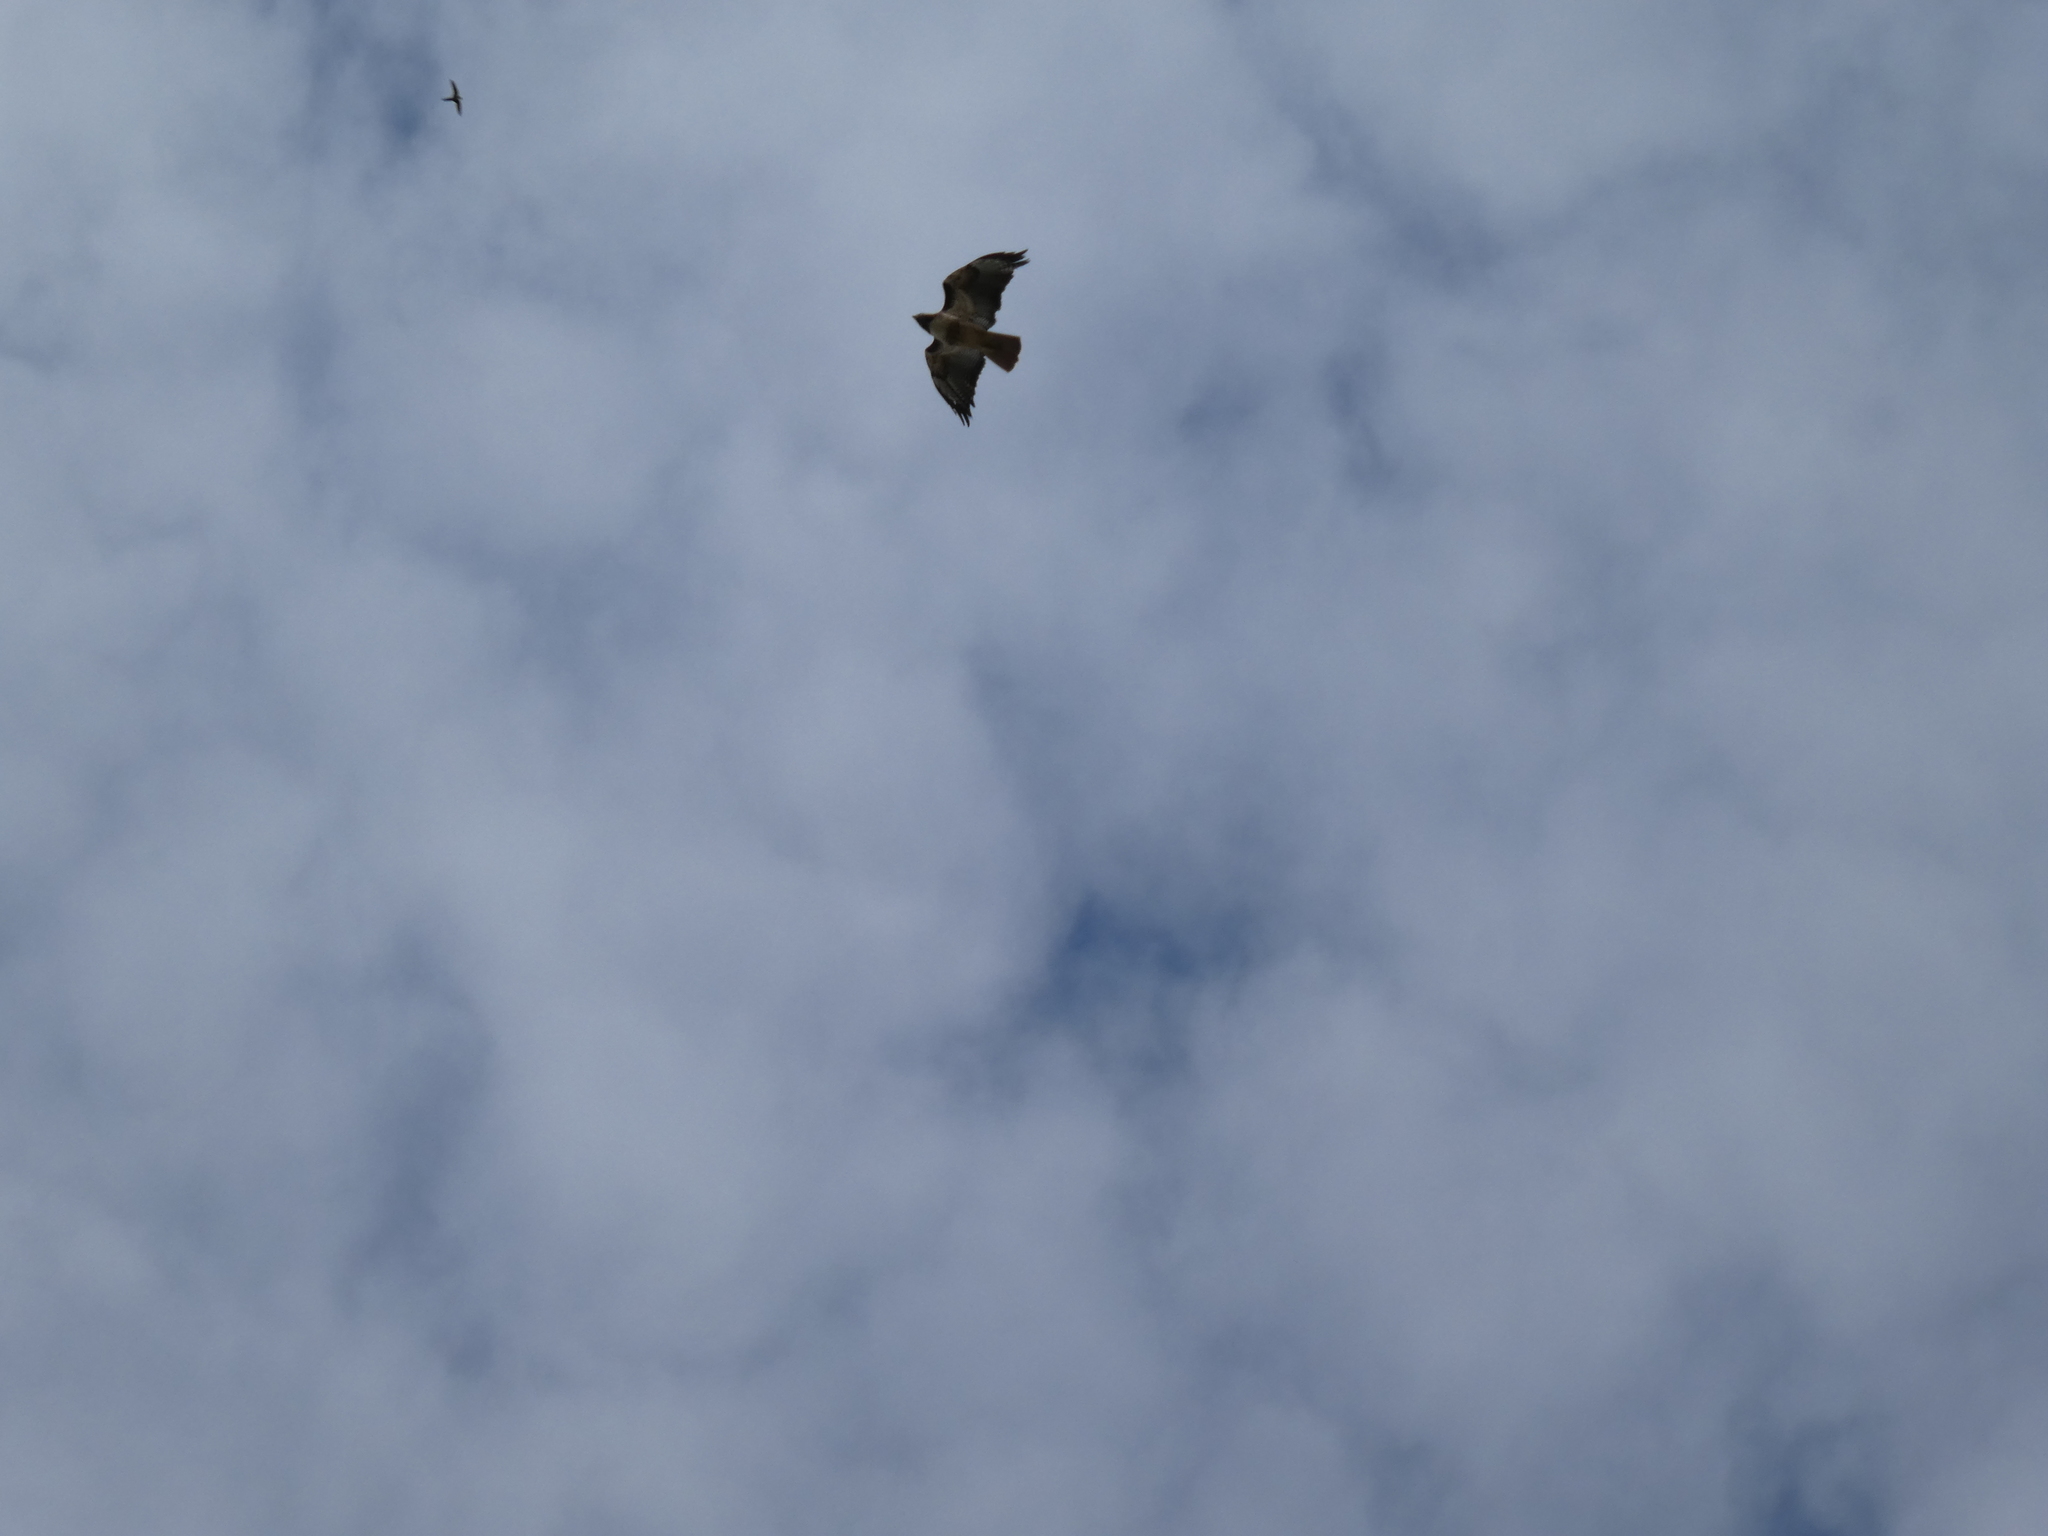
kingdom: Animalia
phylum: Chordata
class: Aves
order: Accipitriformes
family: Accipitridae
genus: Buteo
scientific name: Buteo jamaicensis
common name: Red-tailed hawk
